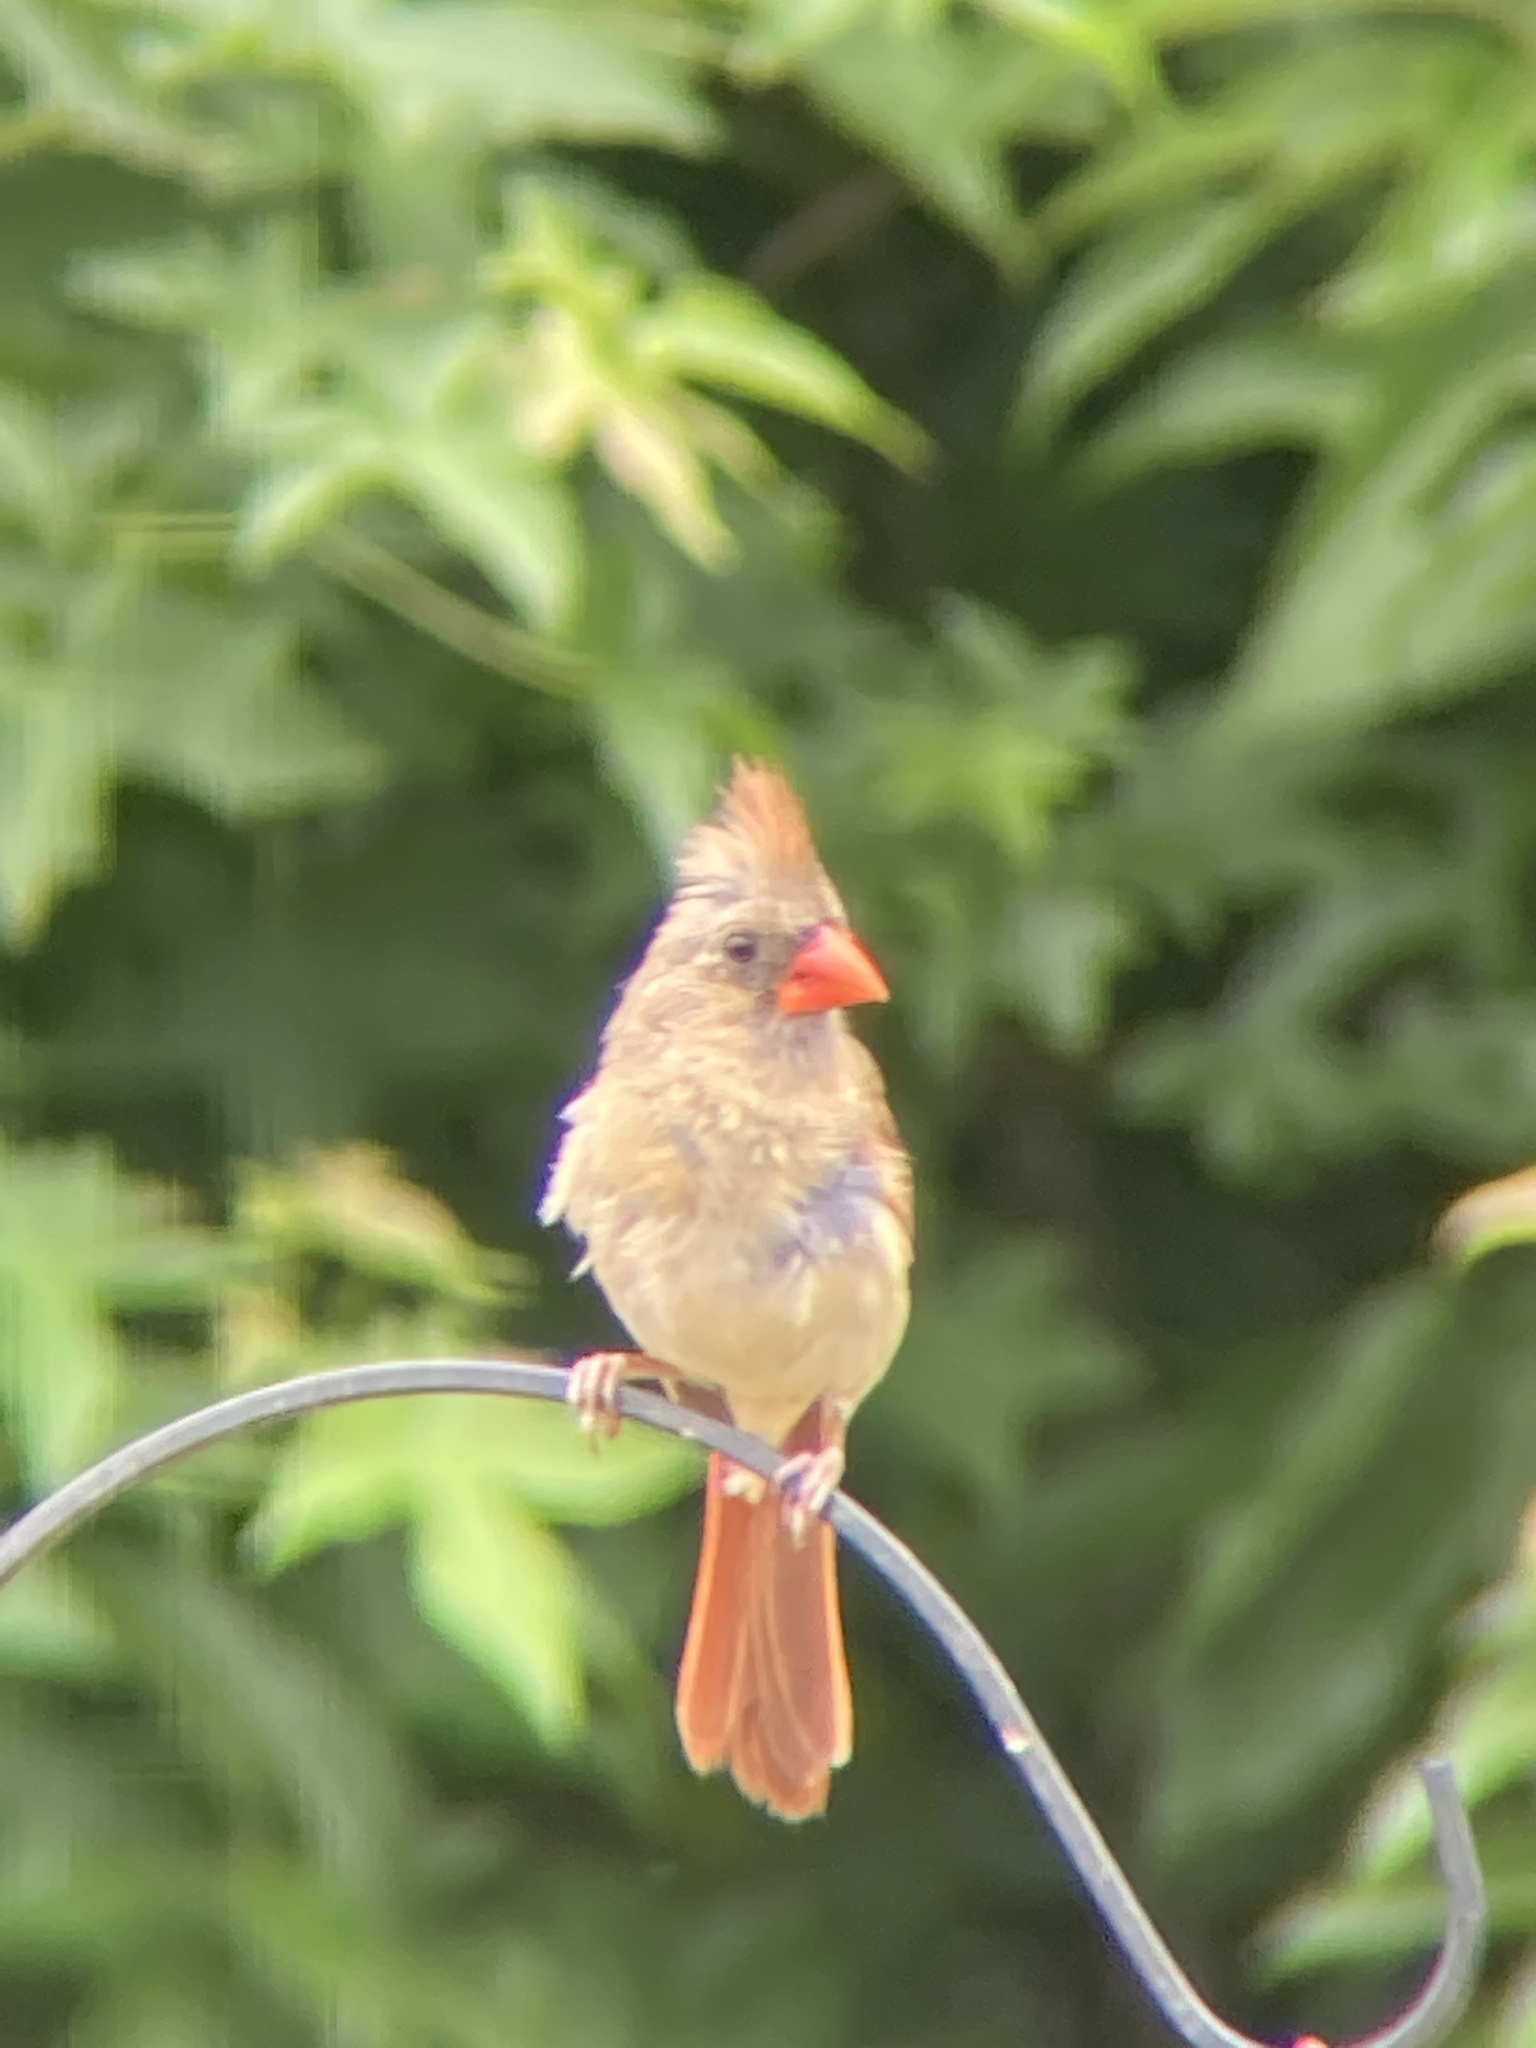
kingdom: Animalia
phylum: Chordata
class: Aves
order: Passeriformes
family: Cardinalidae
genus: Cardinalis
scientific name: Cardinalis cardinalis
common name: Northern cardinal
